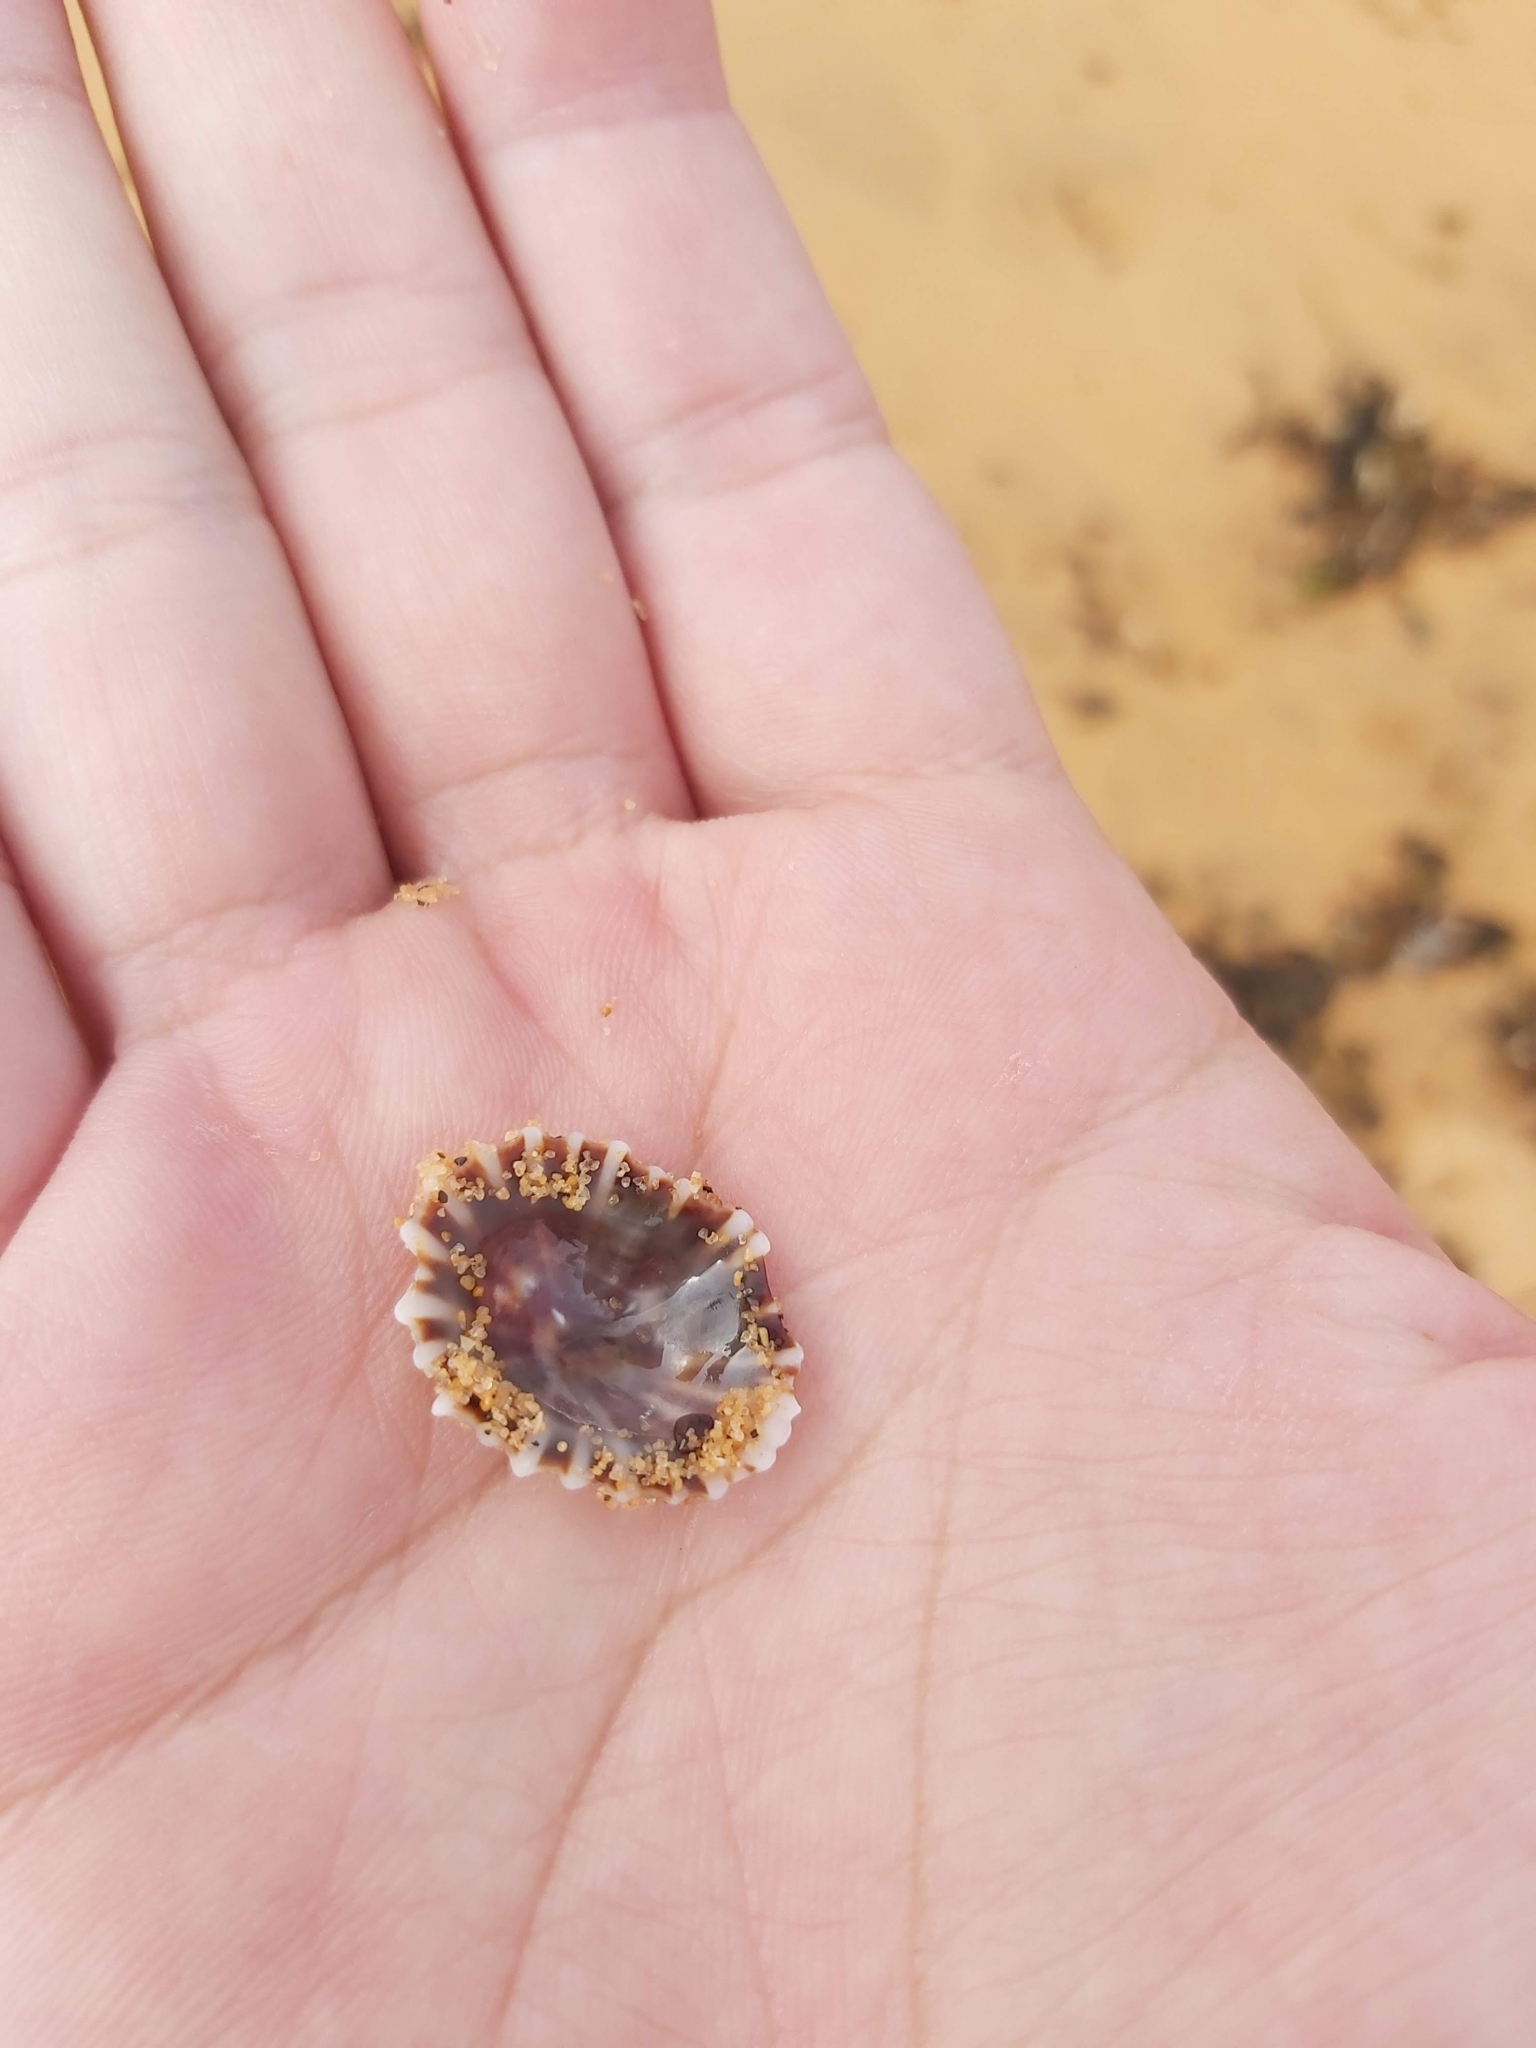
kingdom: Animalia
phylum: Mollusca
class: Gastropoda
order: Siphonariida
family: Siphonariidae
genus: Siphonaria
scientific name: Siphonaria denticulata
